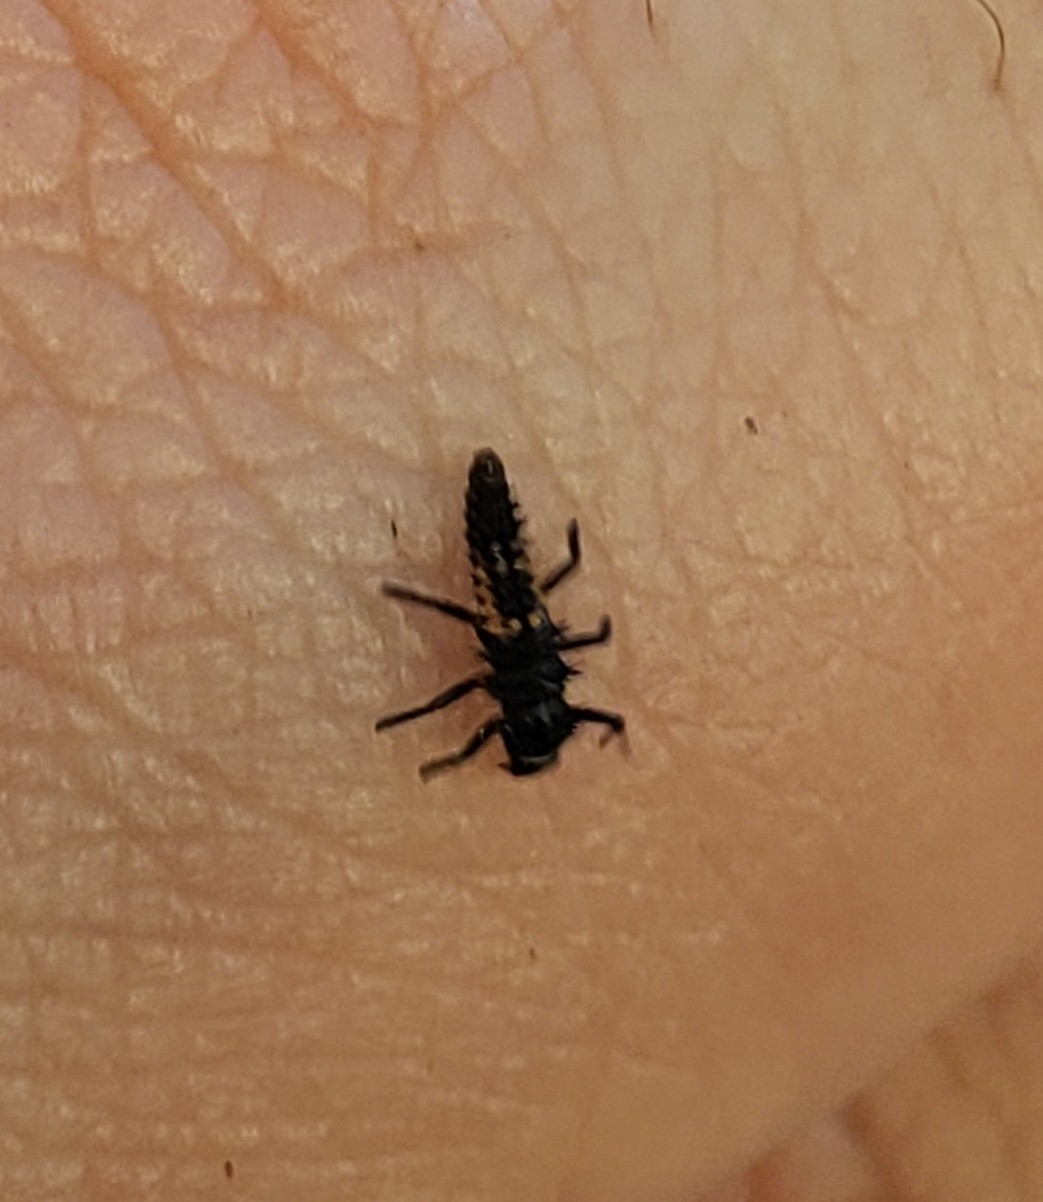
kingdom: Animalia
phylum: Arthropoda
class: Insecta
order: Coleoptera
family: Coccinellidae
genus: Harmonia
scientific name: Harmonia axyridis
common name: Harlequin ladybird
